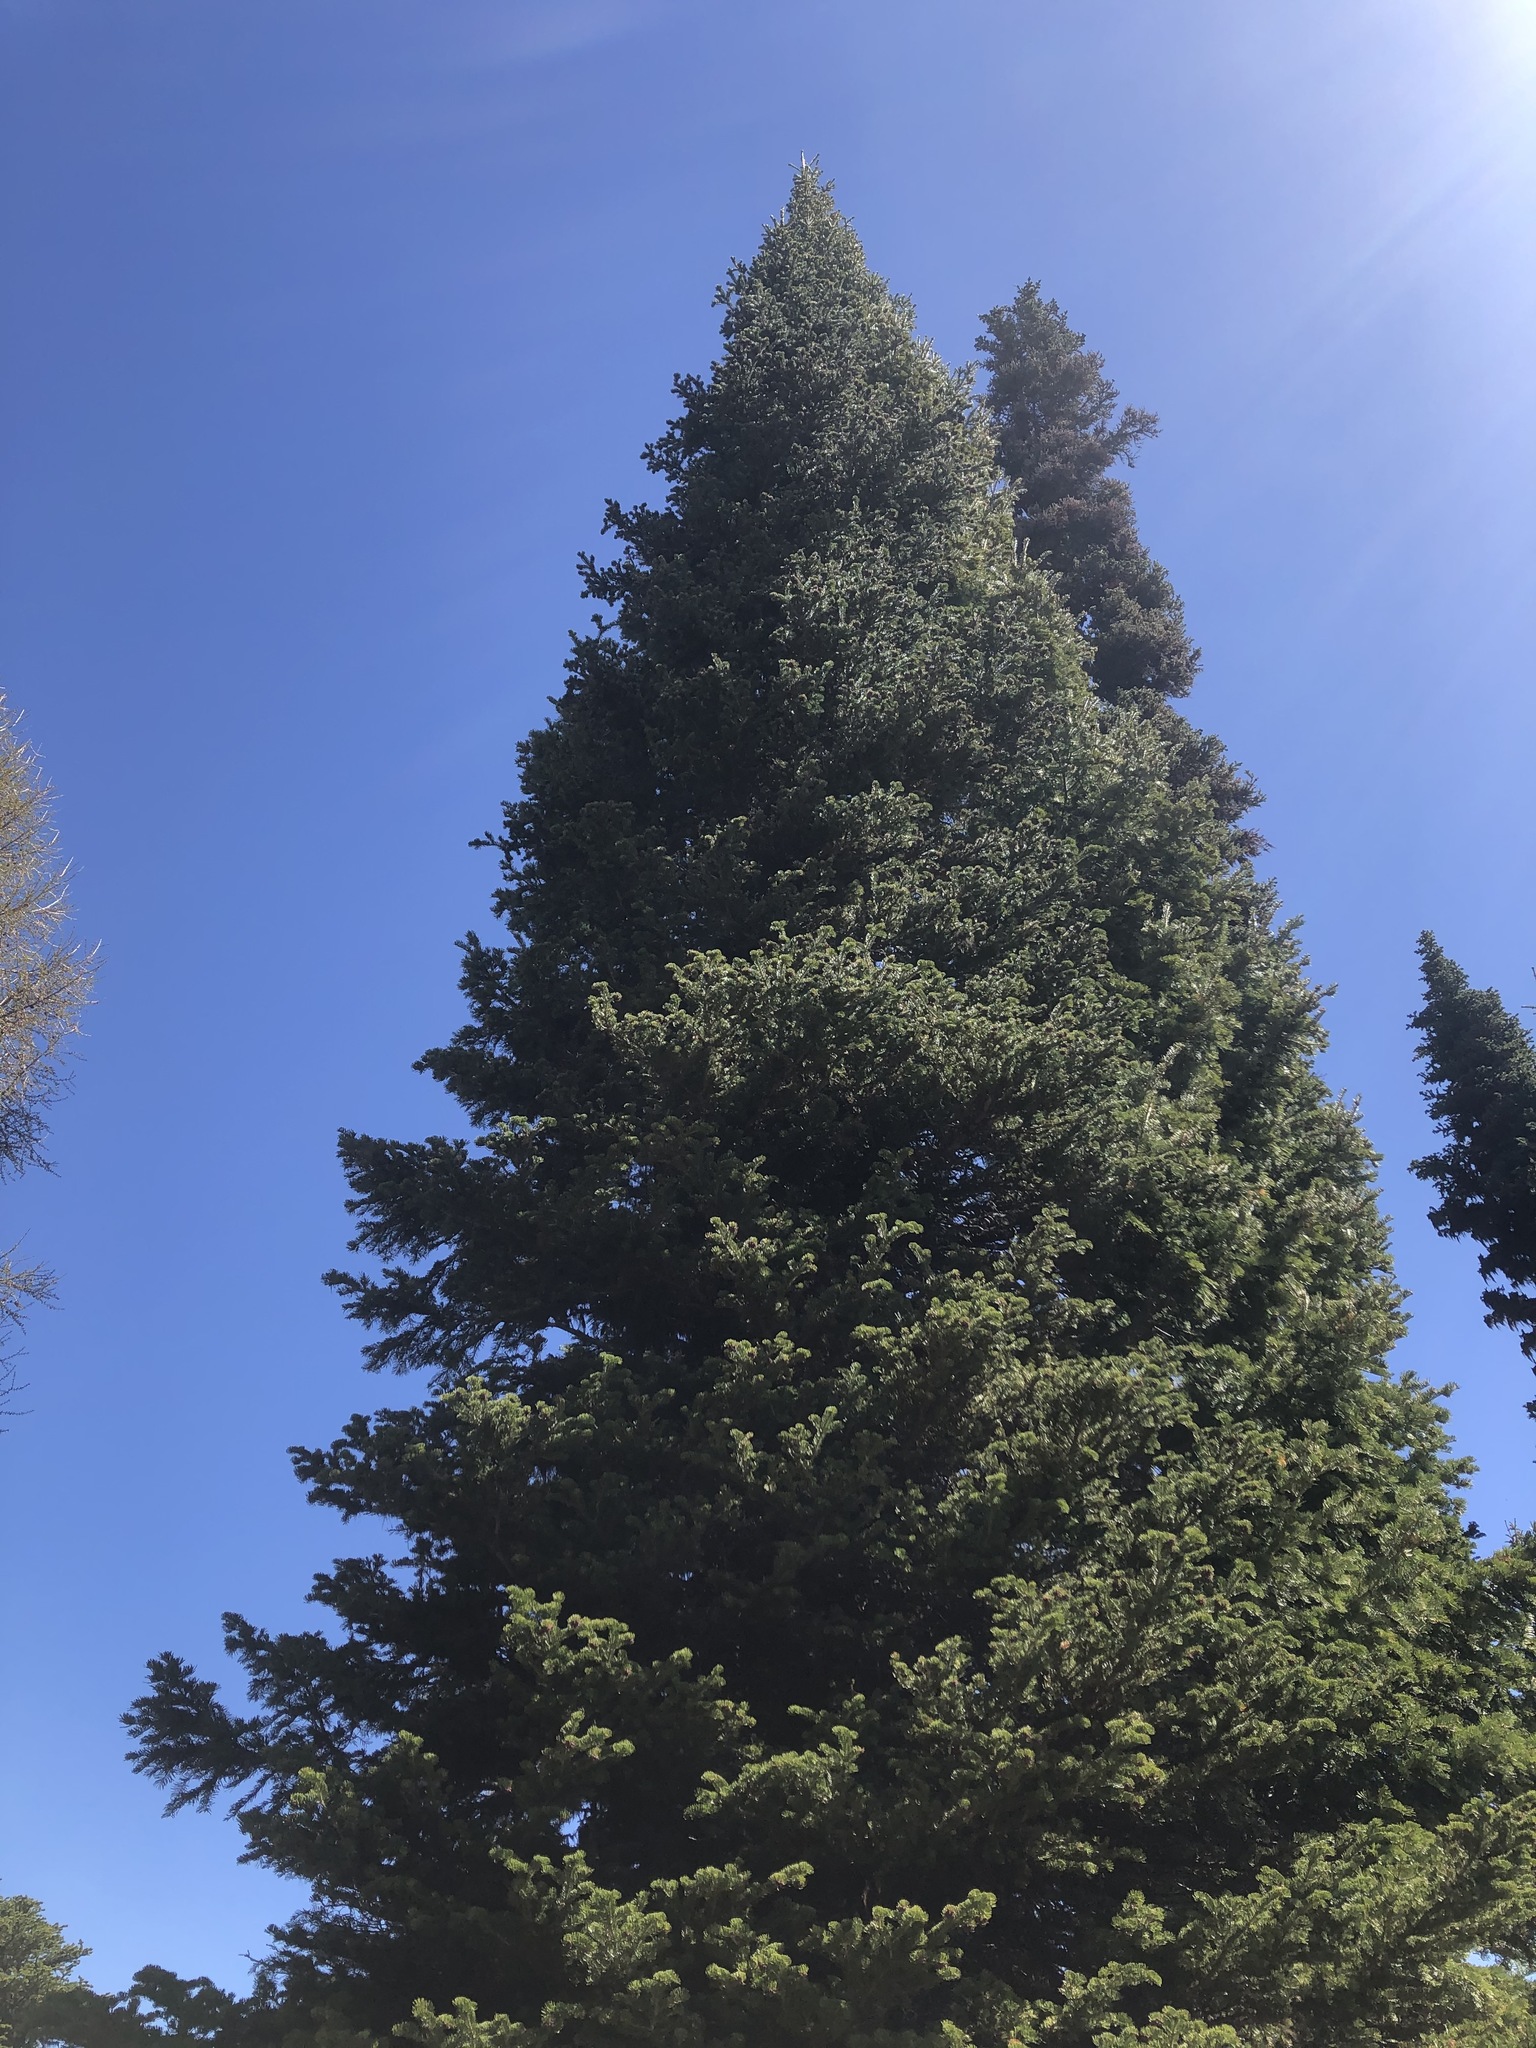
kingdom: Plantae
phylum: Tracheophyta
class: Pinopsida
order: Pinales
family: Pinaceae
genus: Abies
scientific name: Abies lasiocarpa
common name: Subalpine fir
